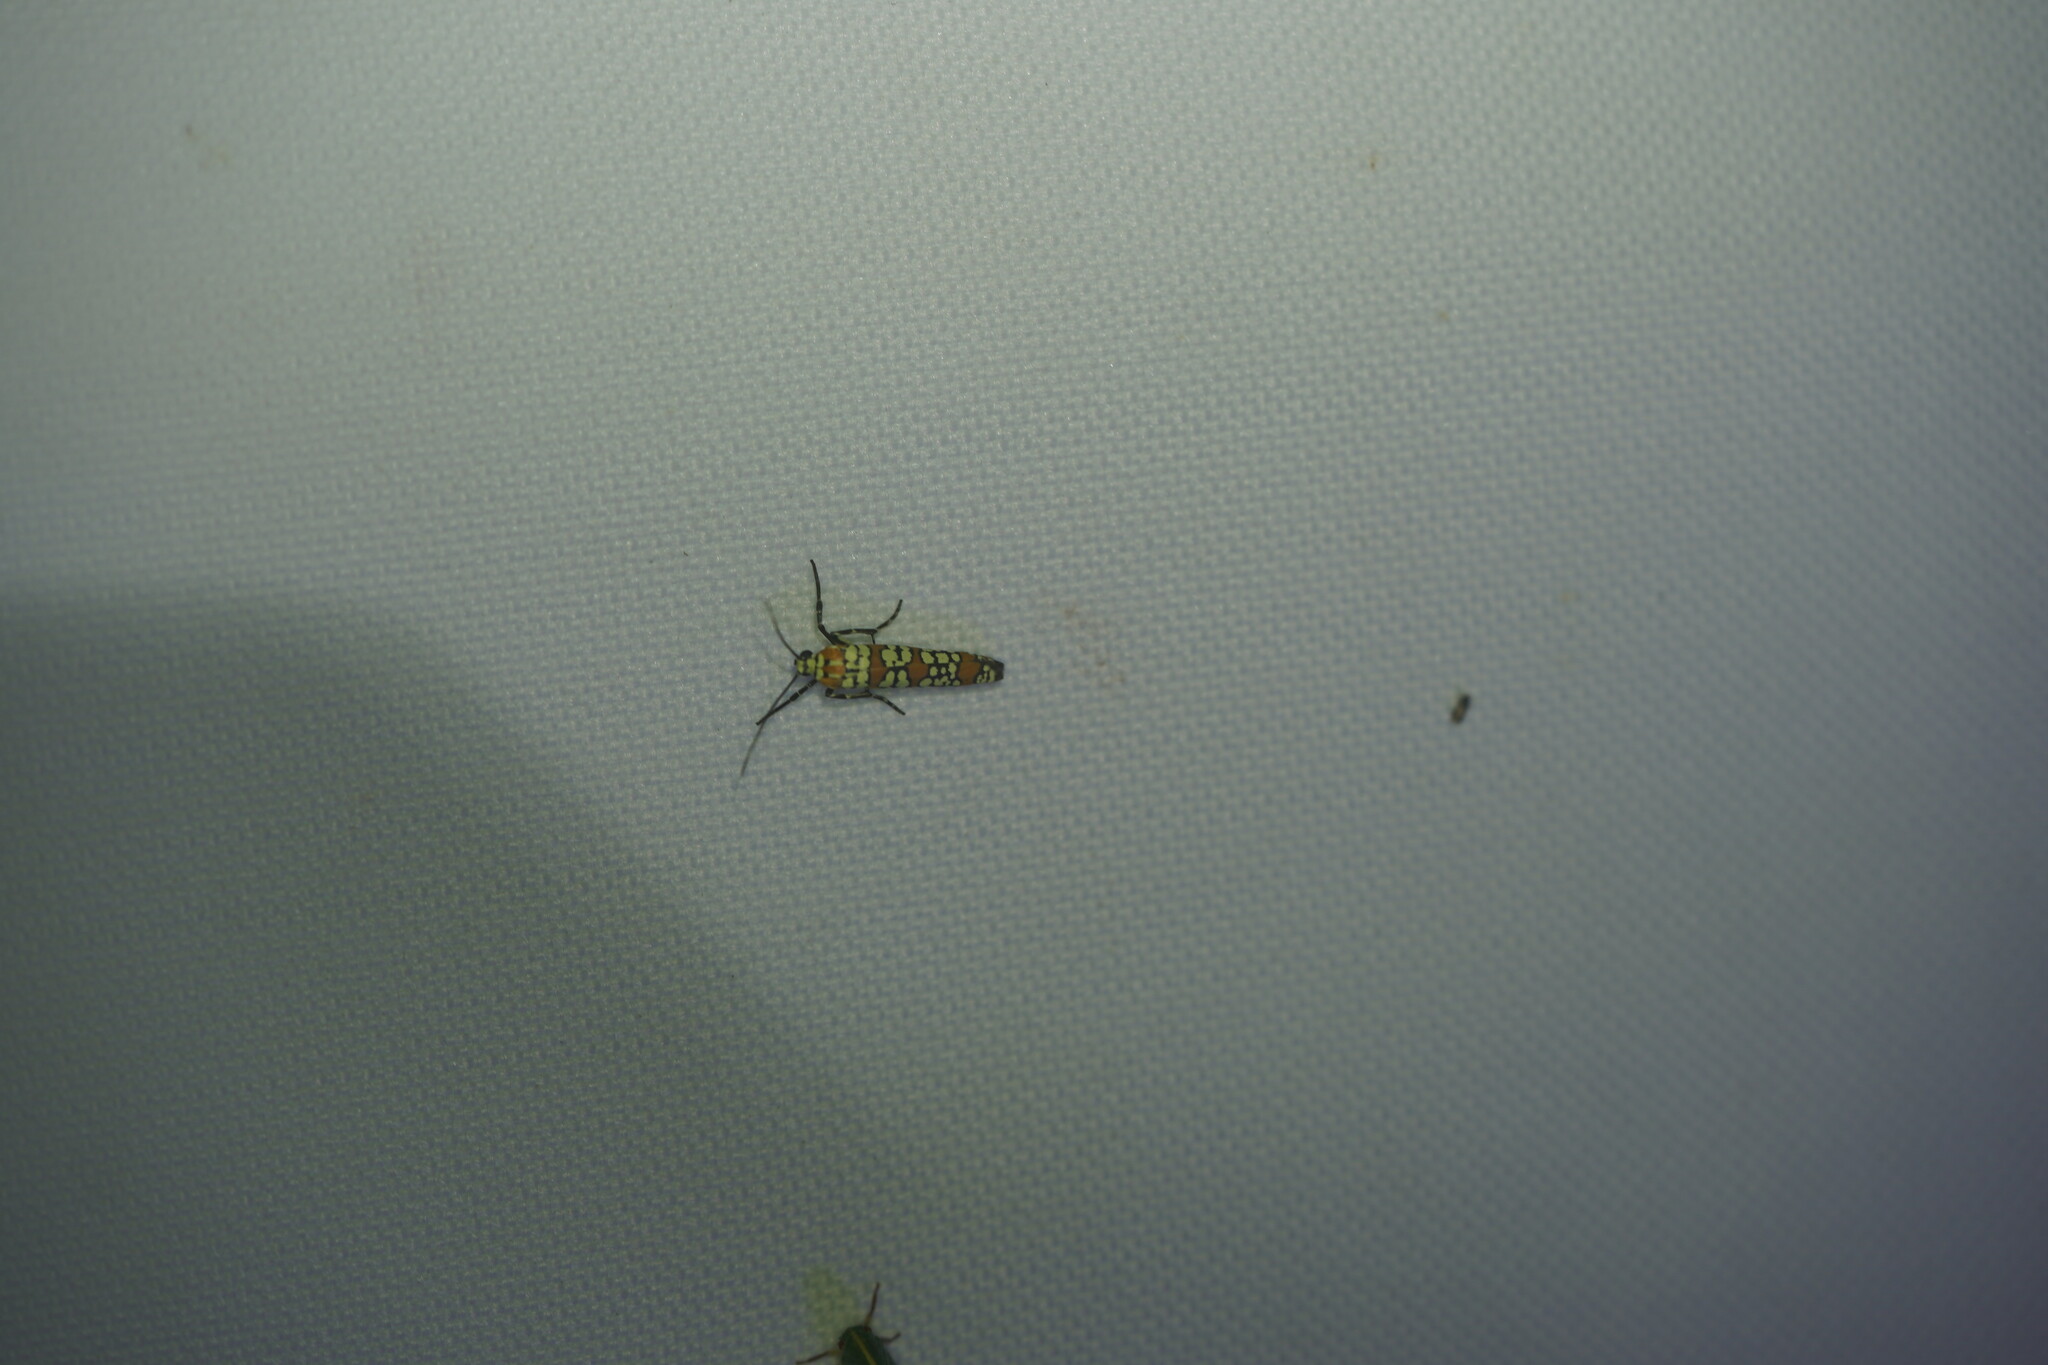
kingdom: Animalia
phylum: Arthropoda
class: Insecta
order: Lepidoptera
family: Attevidae
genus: Atteva
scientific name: Atteva punctella
